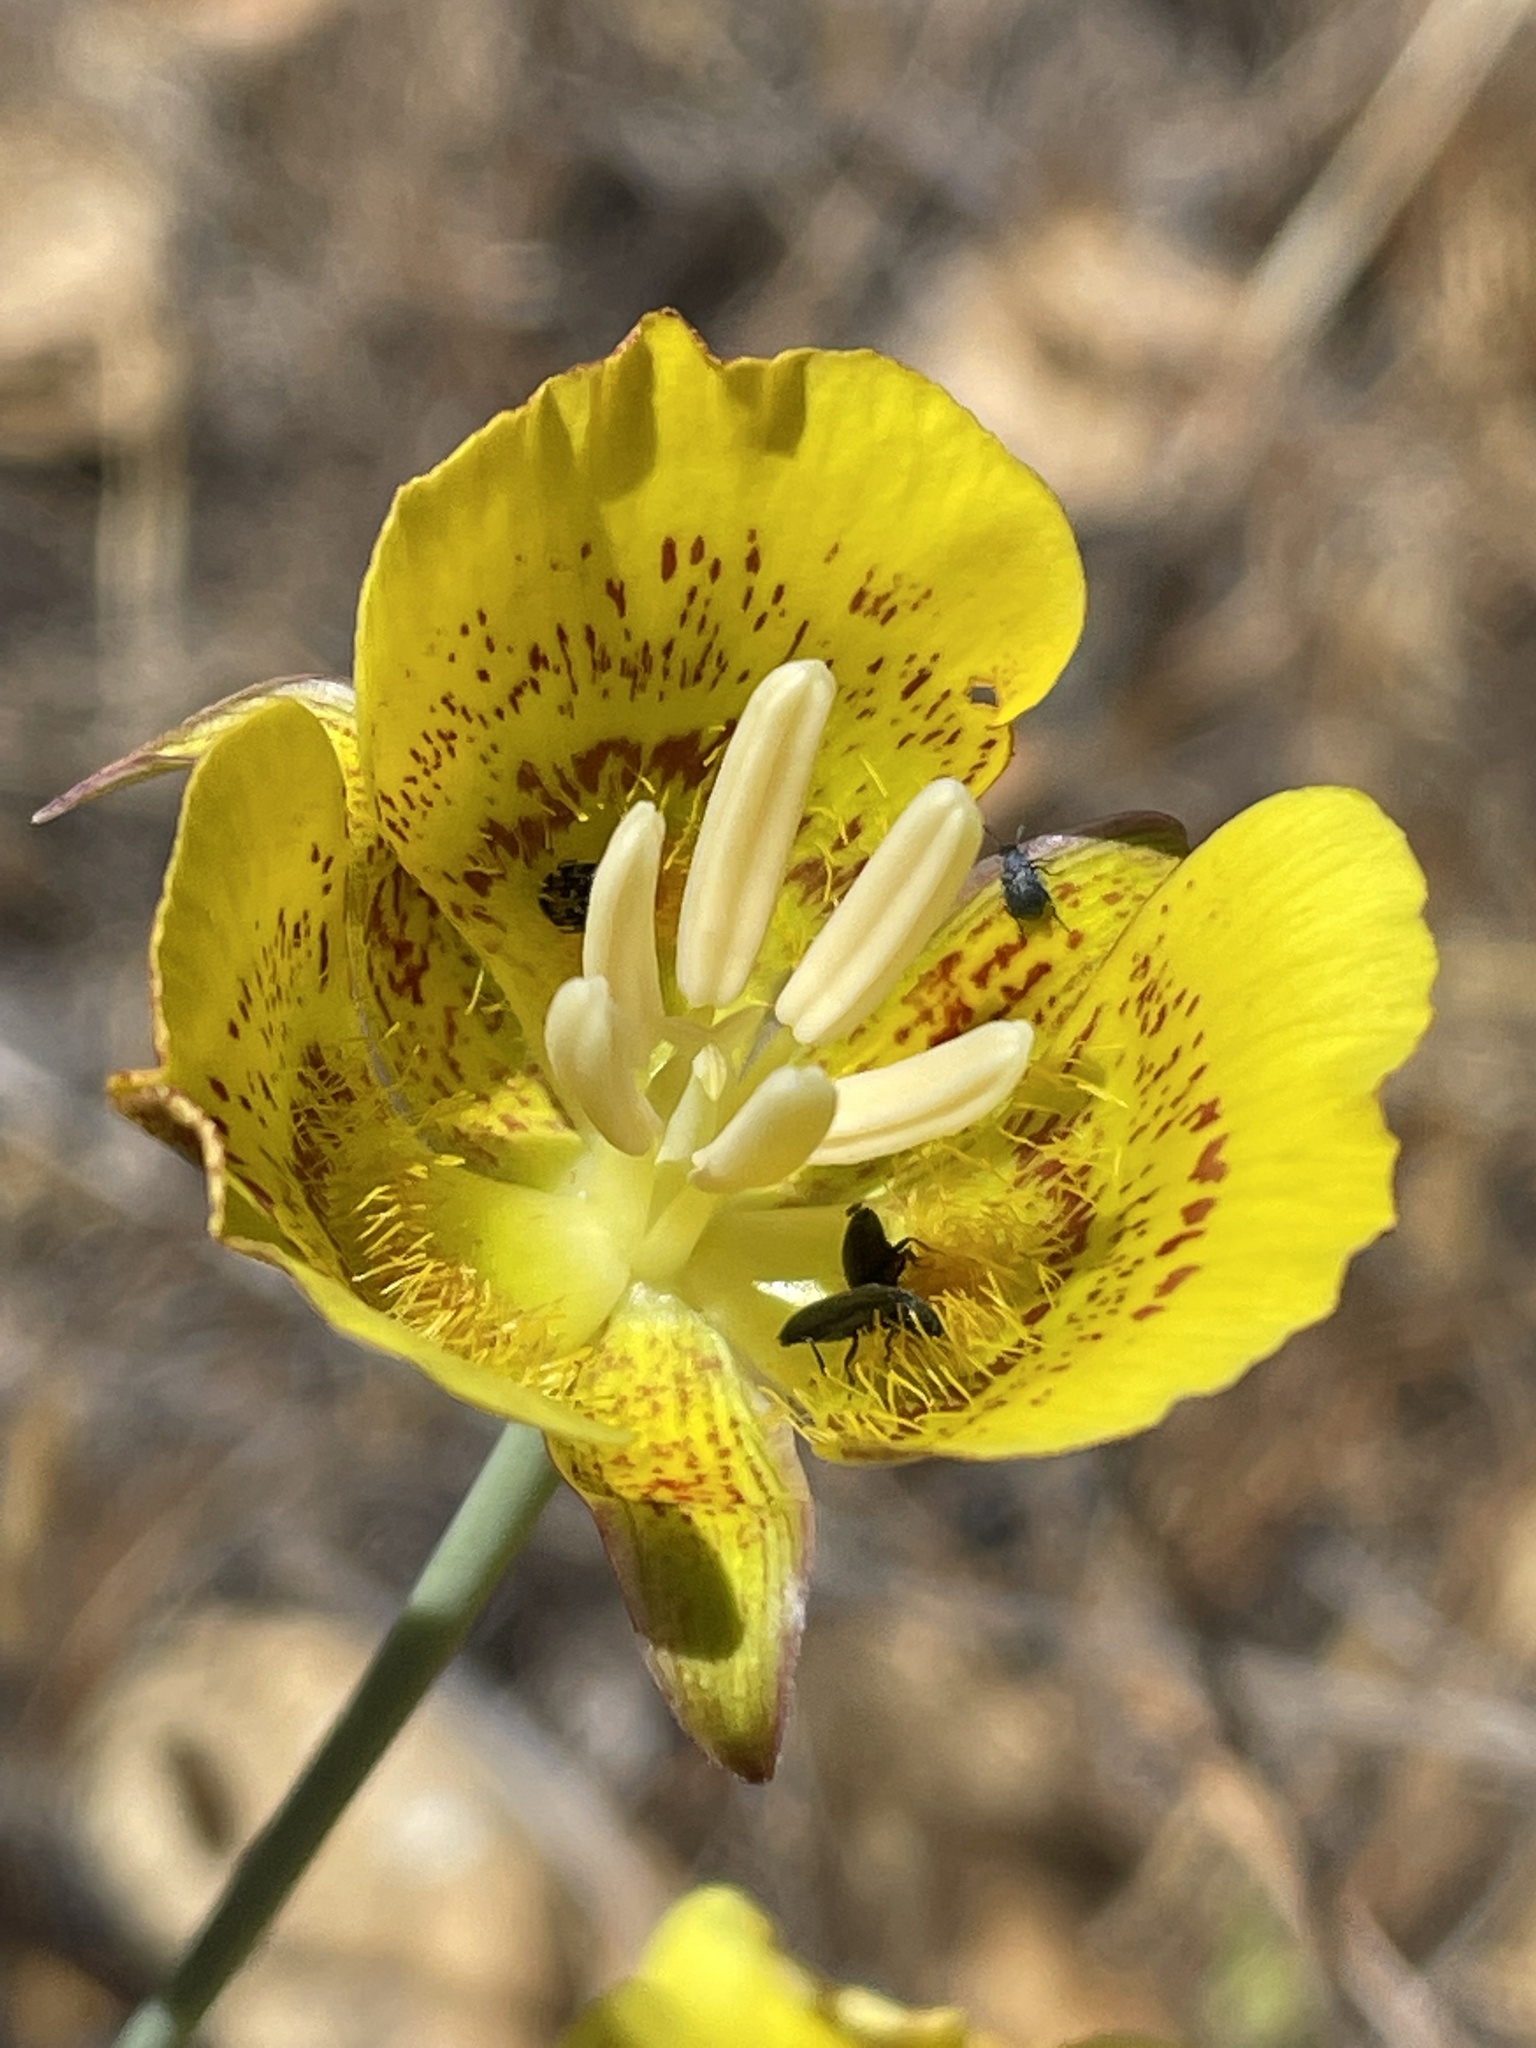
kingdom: Plantae
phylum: Tracheophyta
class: Liliopsida
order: Liliales
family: Liliaceae
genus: Calochortus
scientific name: Calochortus luteus
